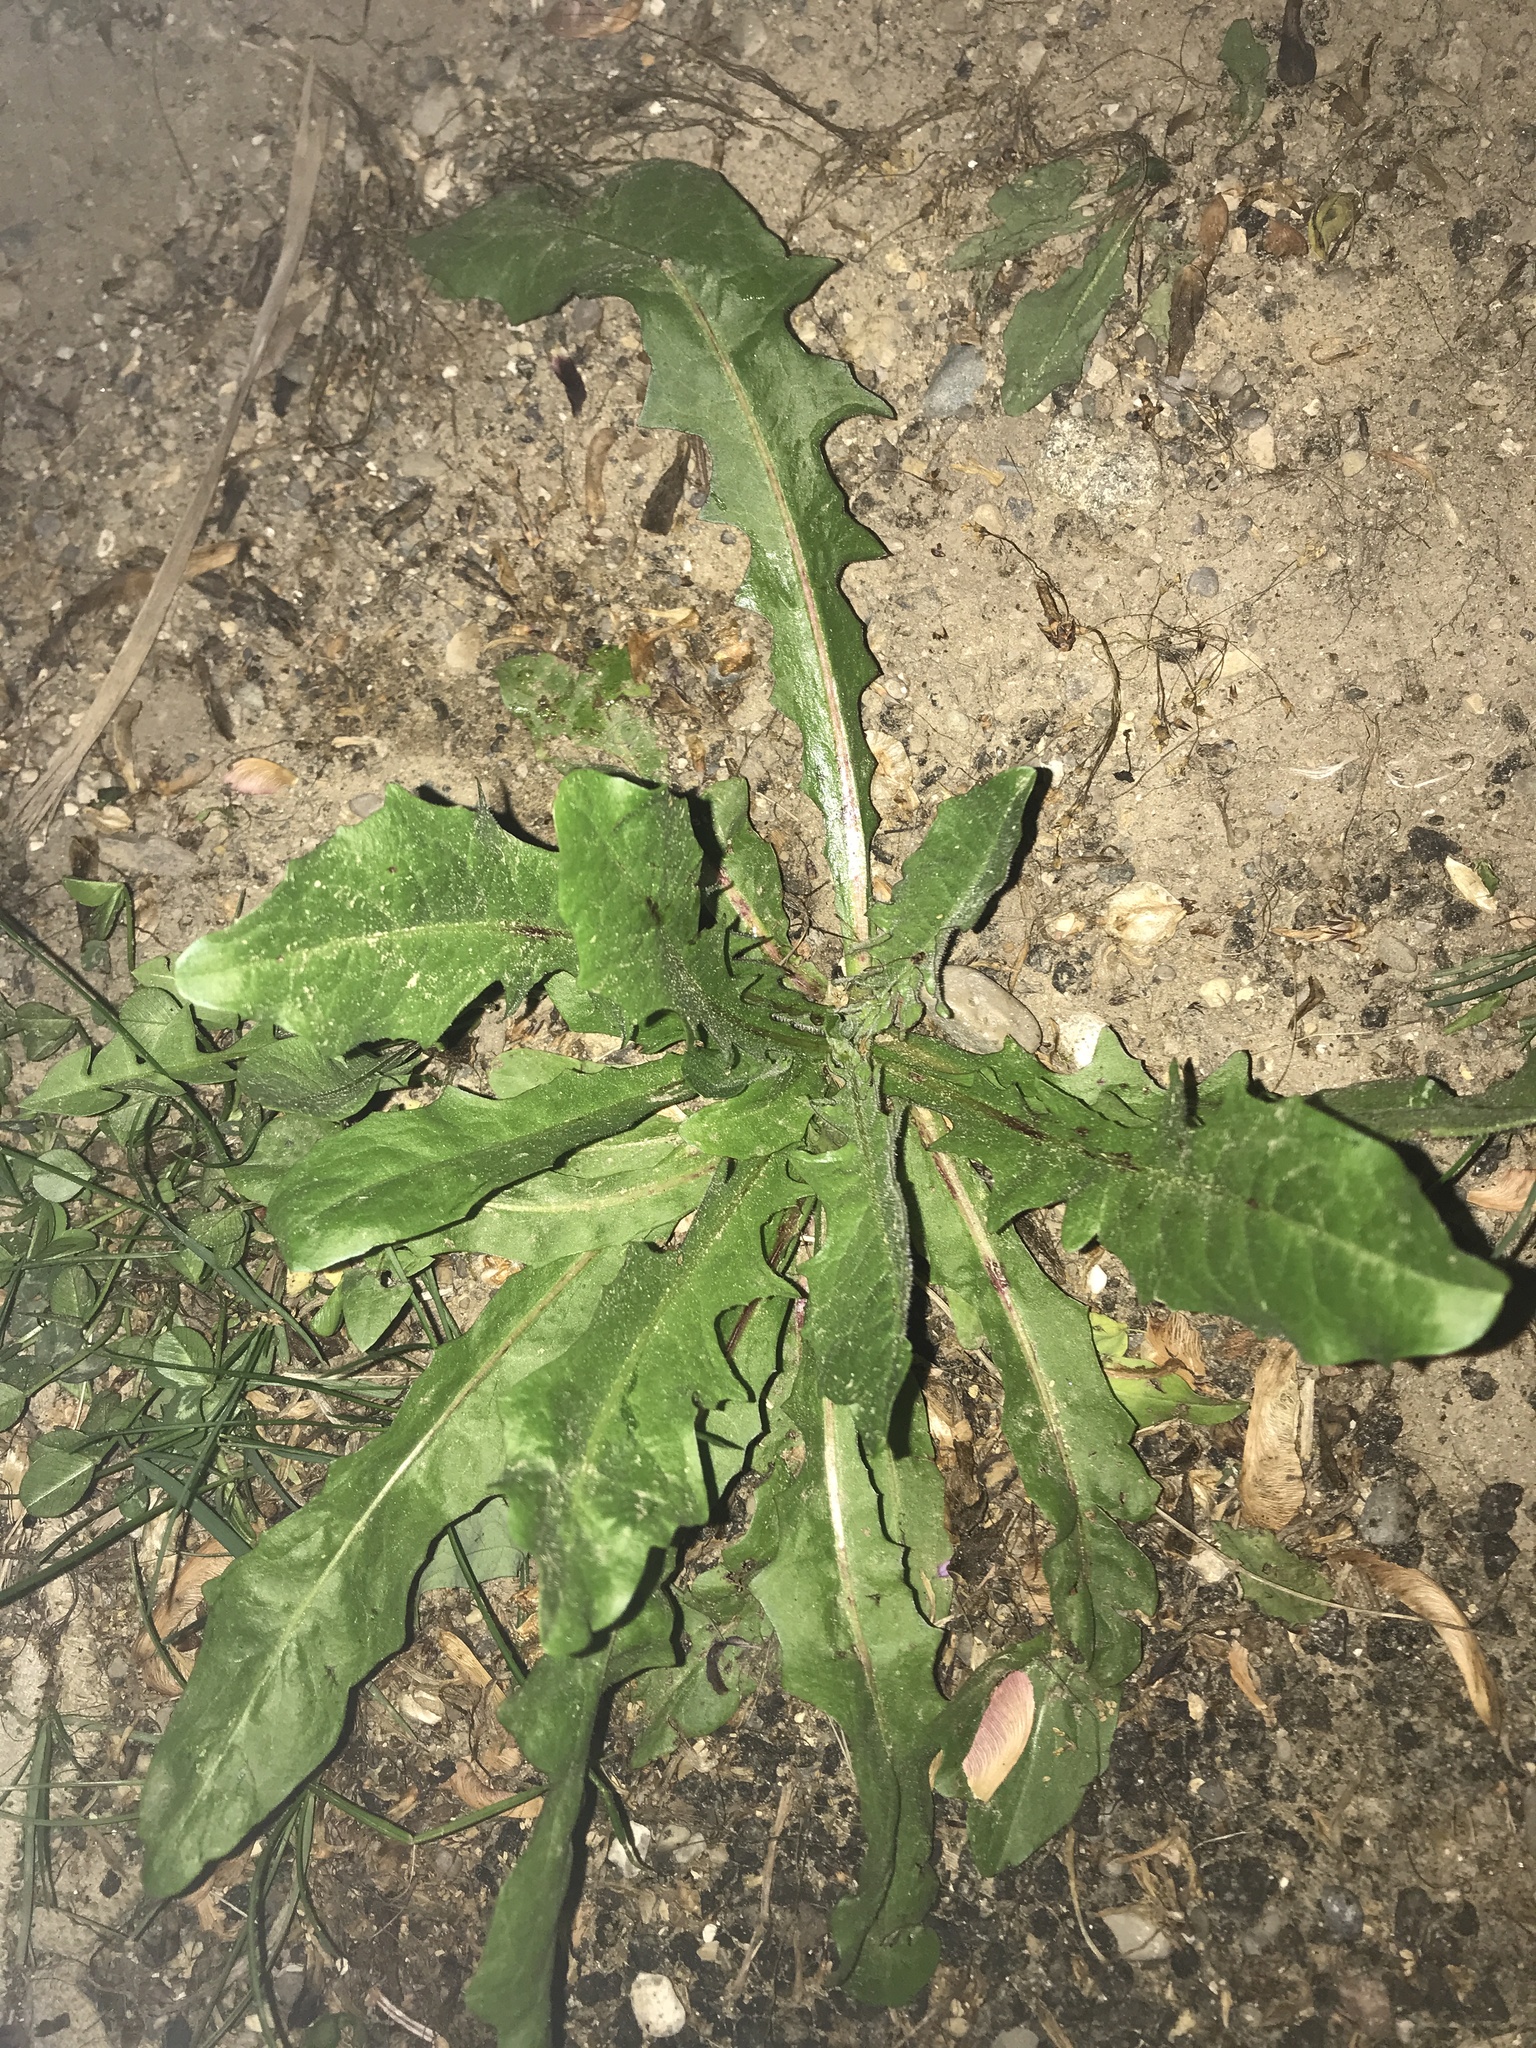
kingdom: Plantae
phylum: Tracheophyta
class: Magnoliopsida
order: Asterales
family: Asteraceae
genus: Taraxacum
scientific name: Taraxacum officinale
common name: Common dandelion
